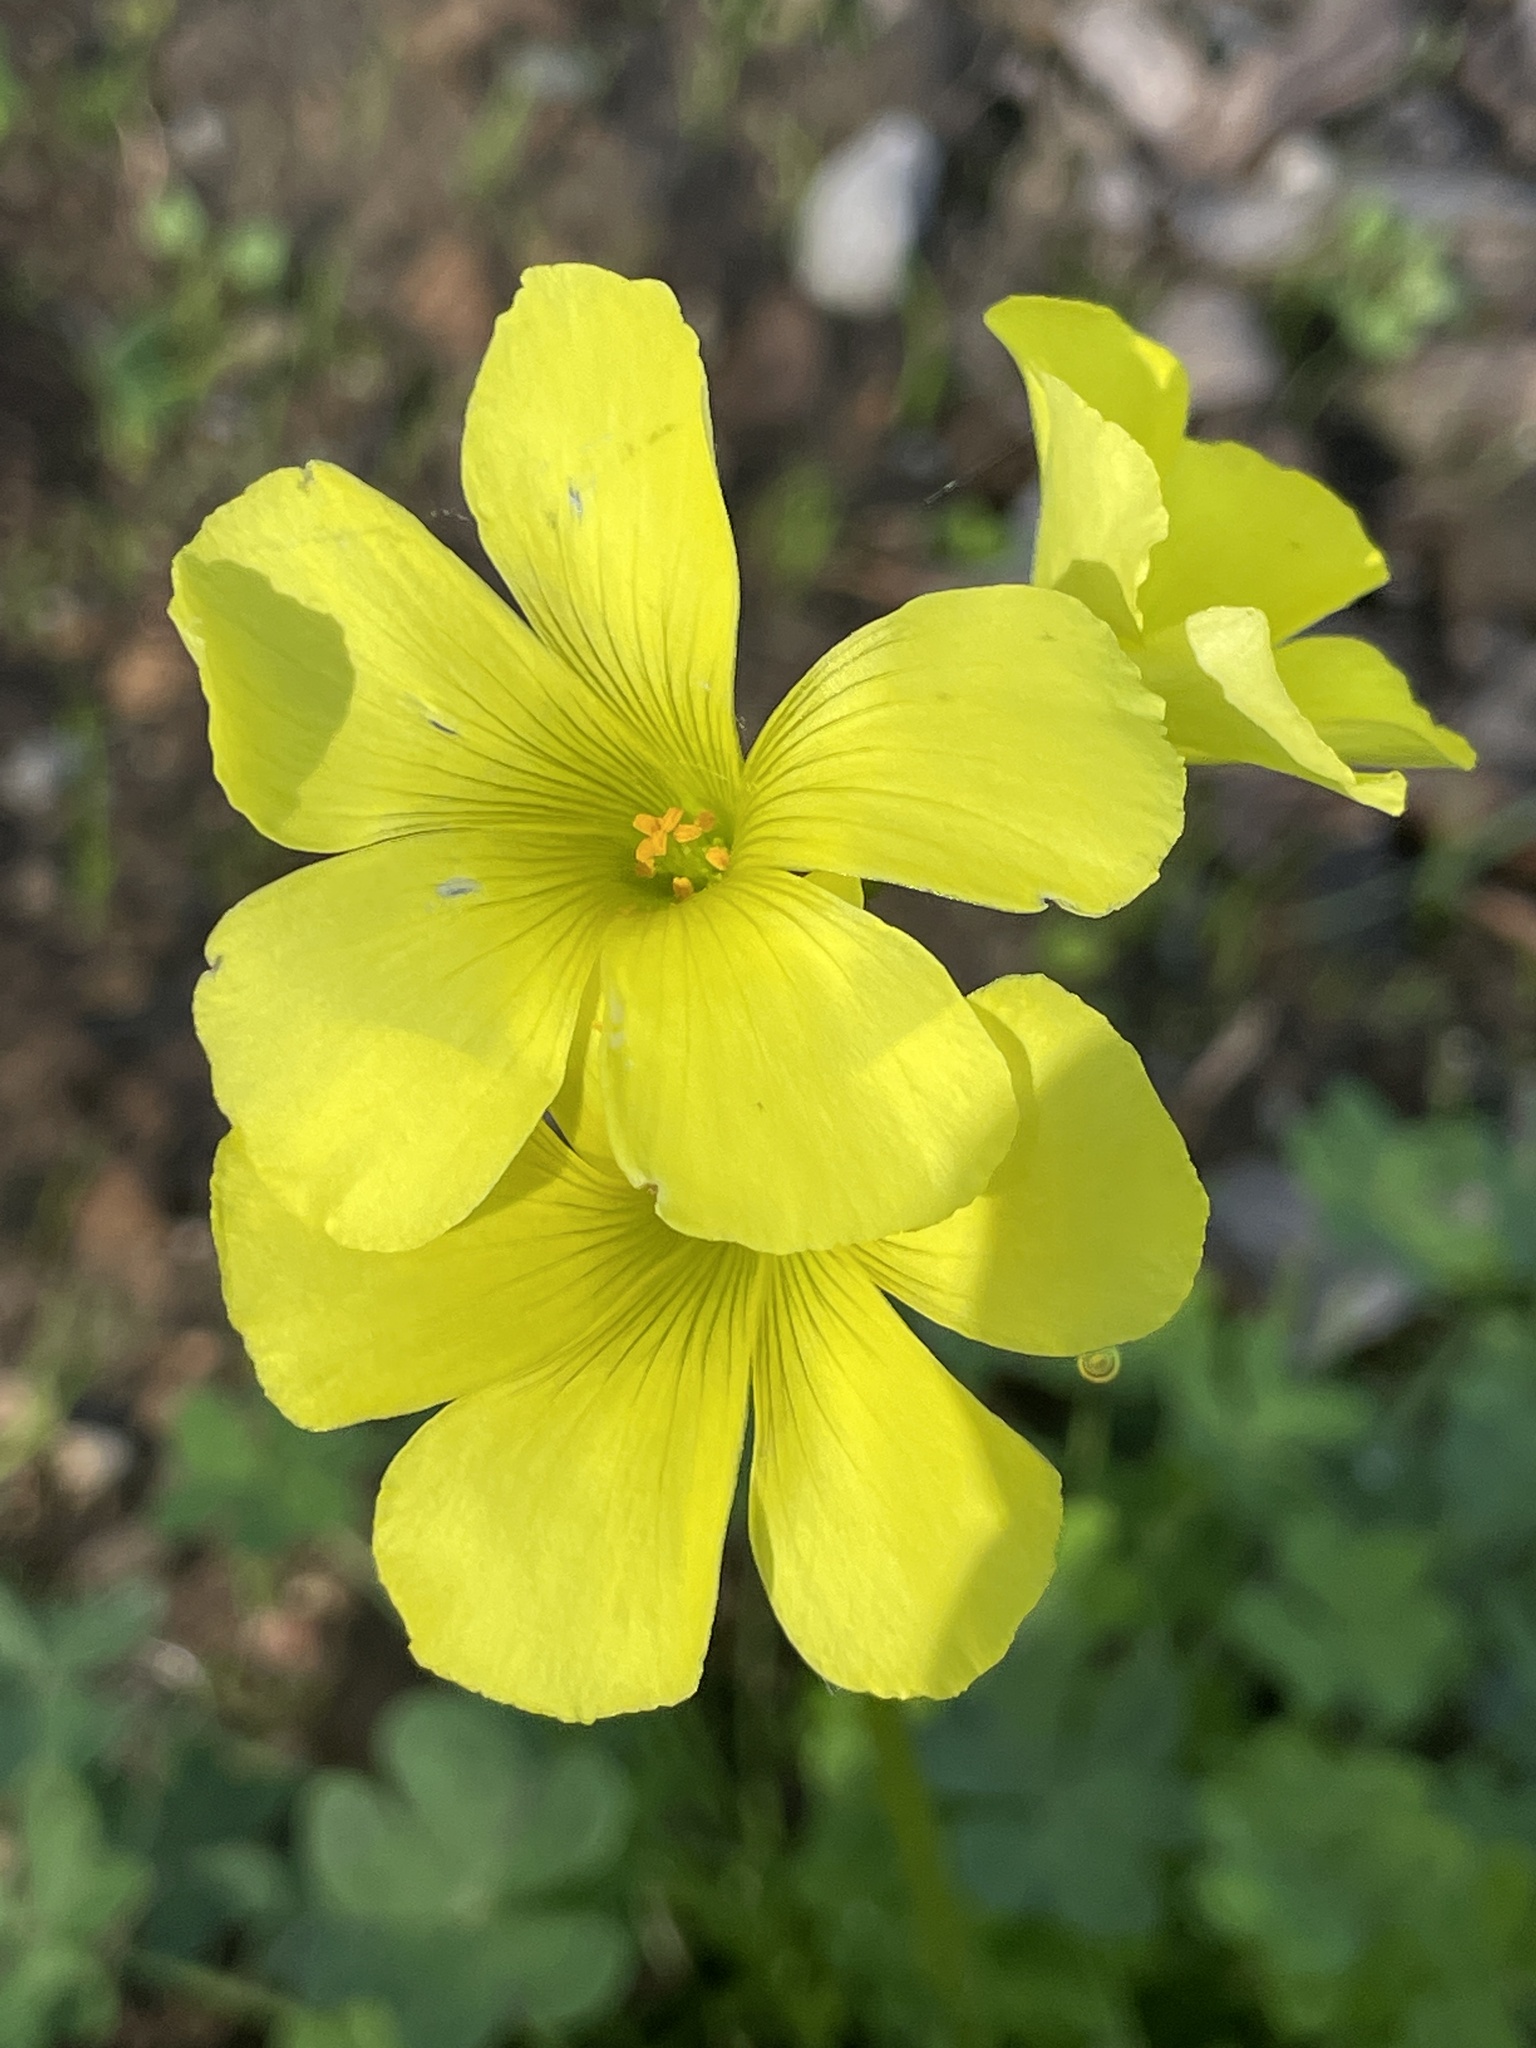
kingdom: Plantae
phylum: Tracheophyta
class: Magnoliopsida
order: Oxalidales
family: Oxalidaceae
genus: Oxalis
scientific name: Oxalis pes-caprae
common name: Bermuda-buttercup
